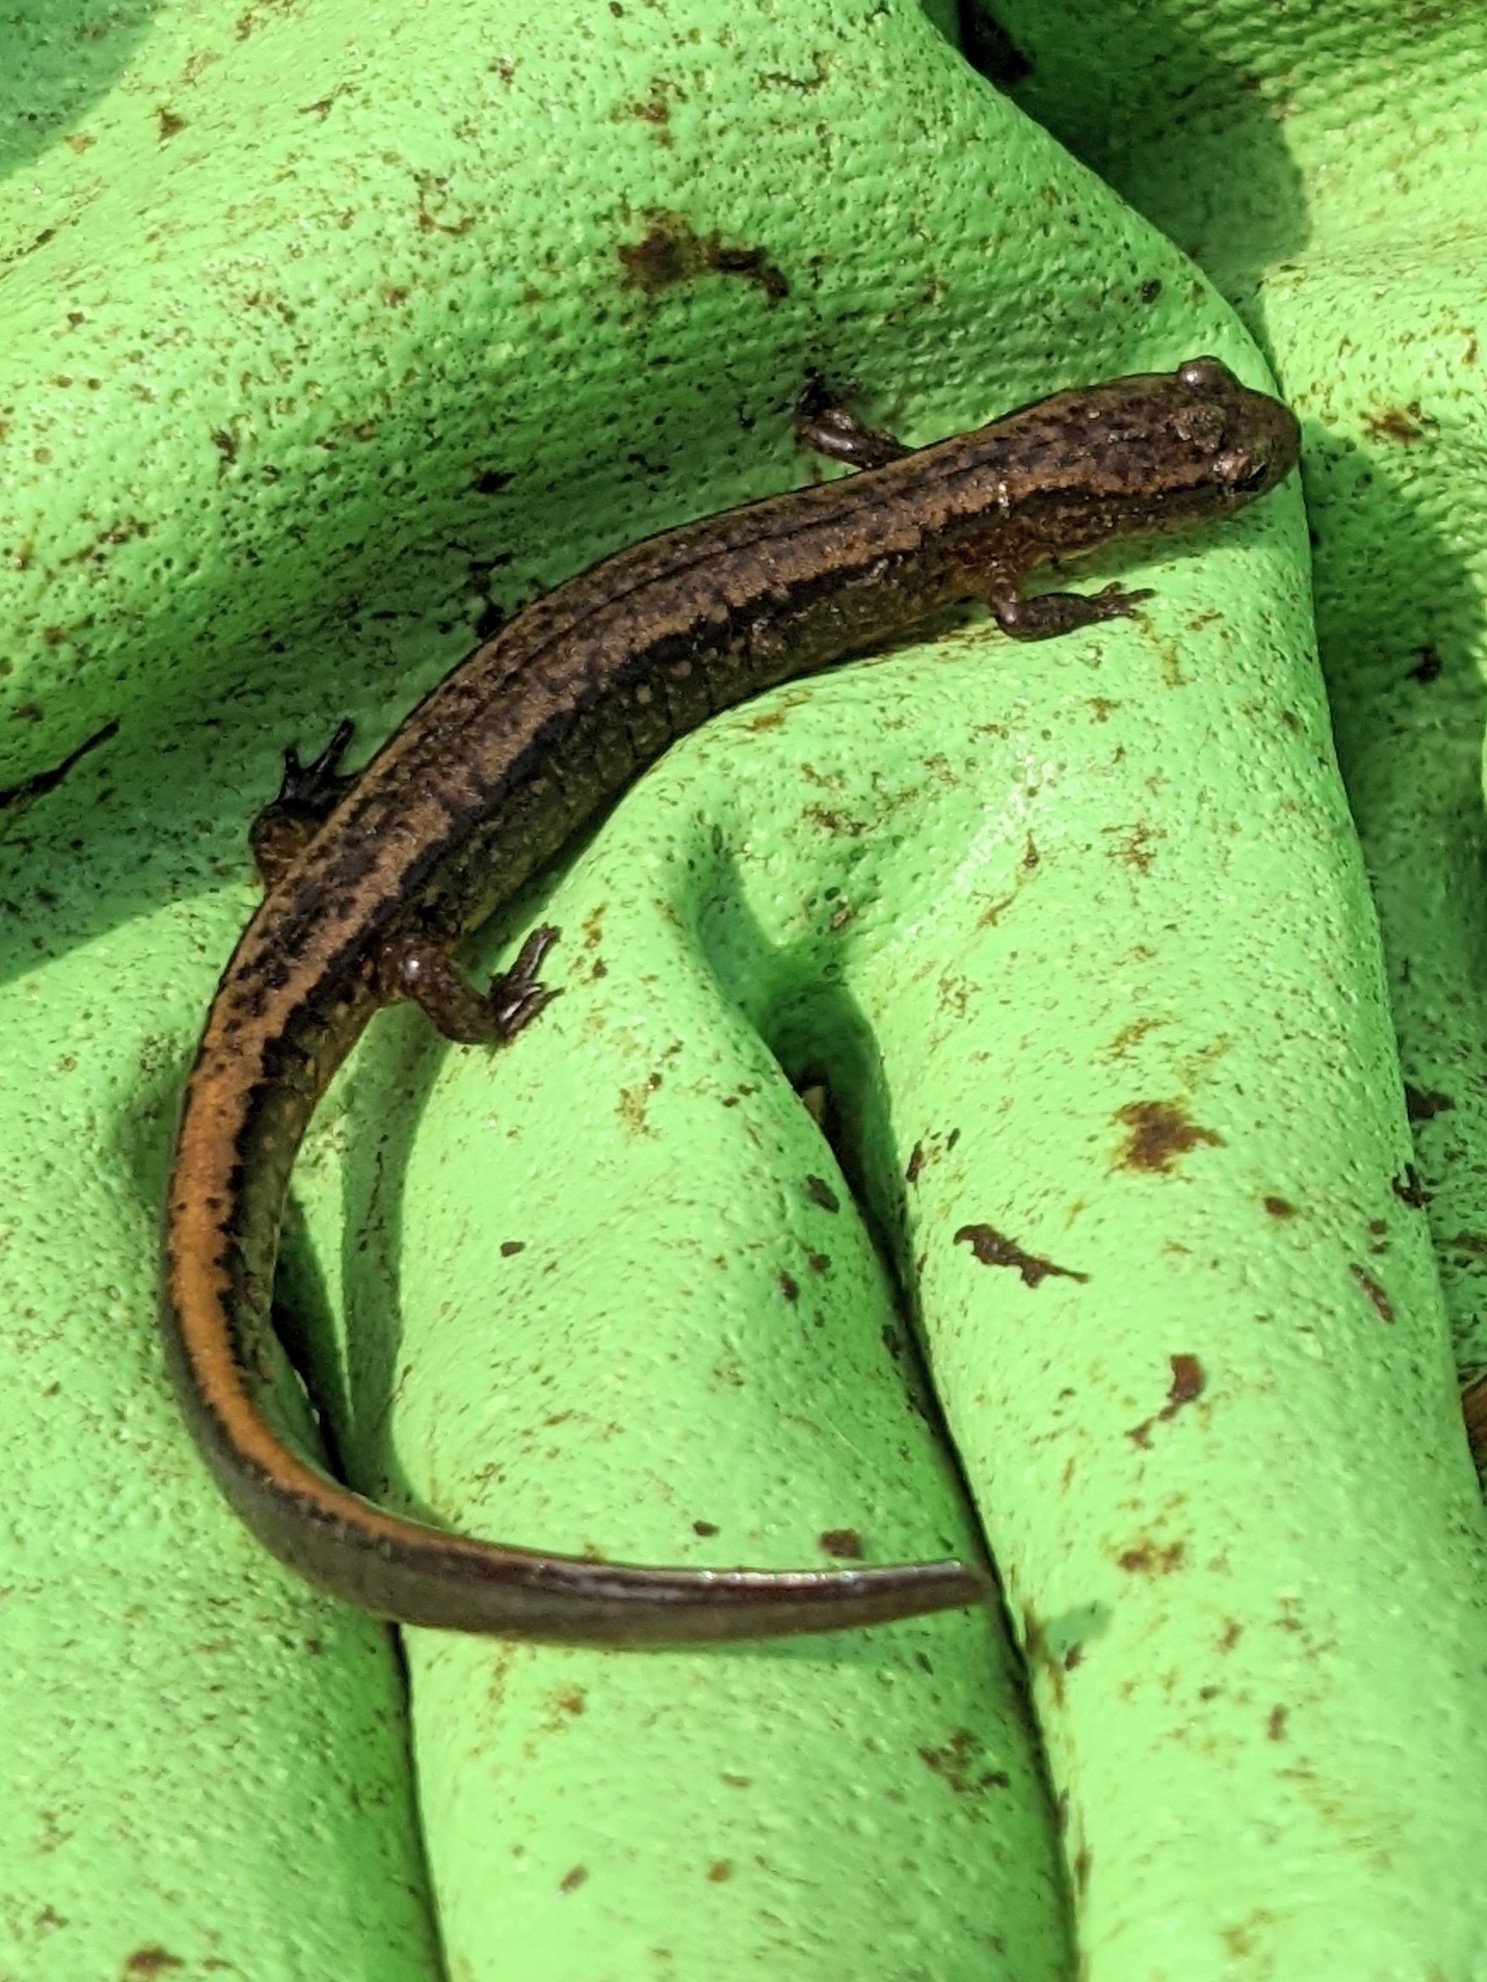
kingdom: Animalia
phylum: Chordata
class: Amphibia
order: Caudata
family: Plethodontidae
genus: Eurycea
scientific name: Eurycea bislineata
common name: Northern two-lined salamander
